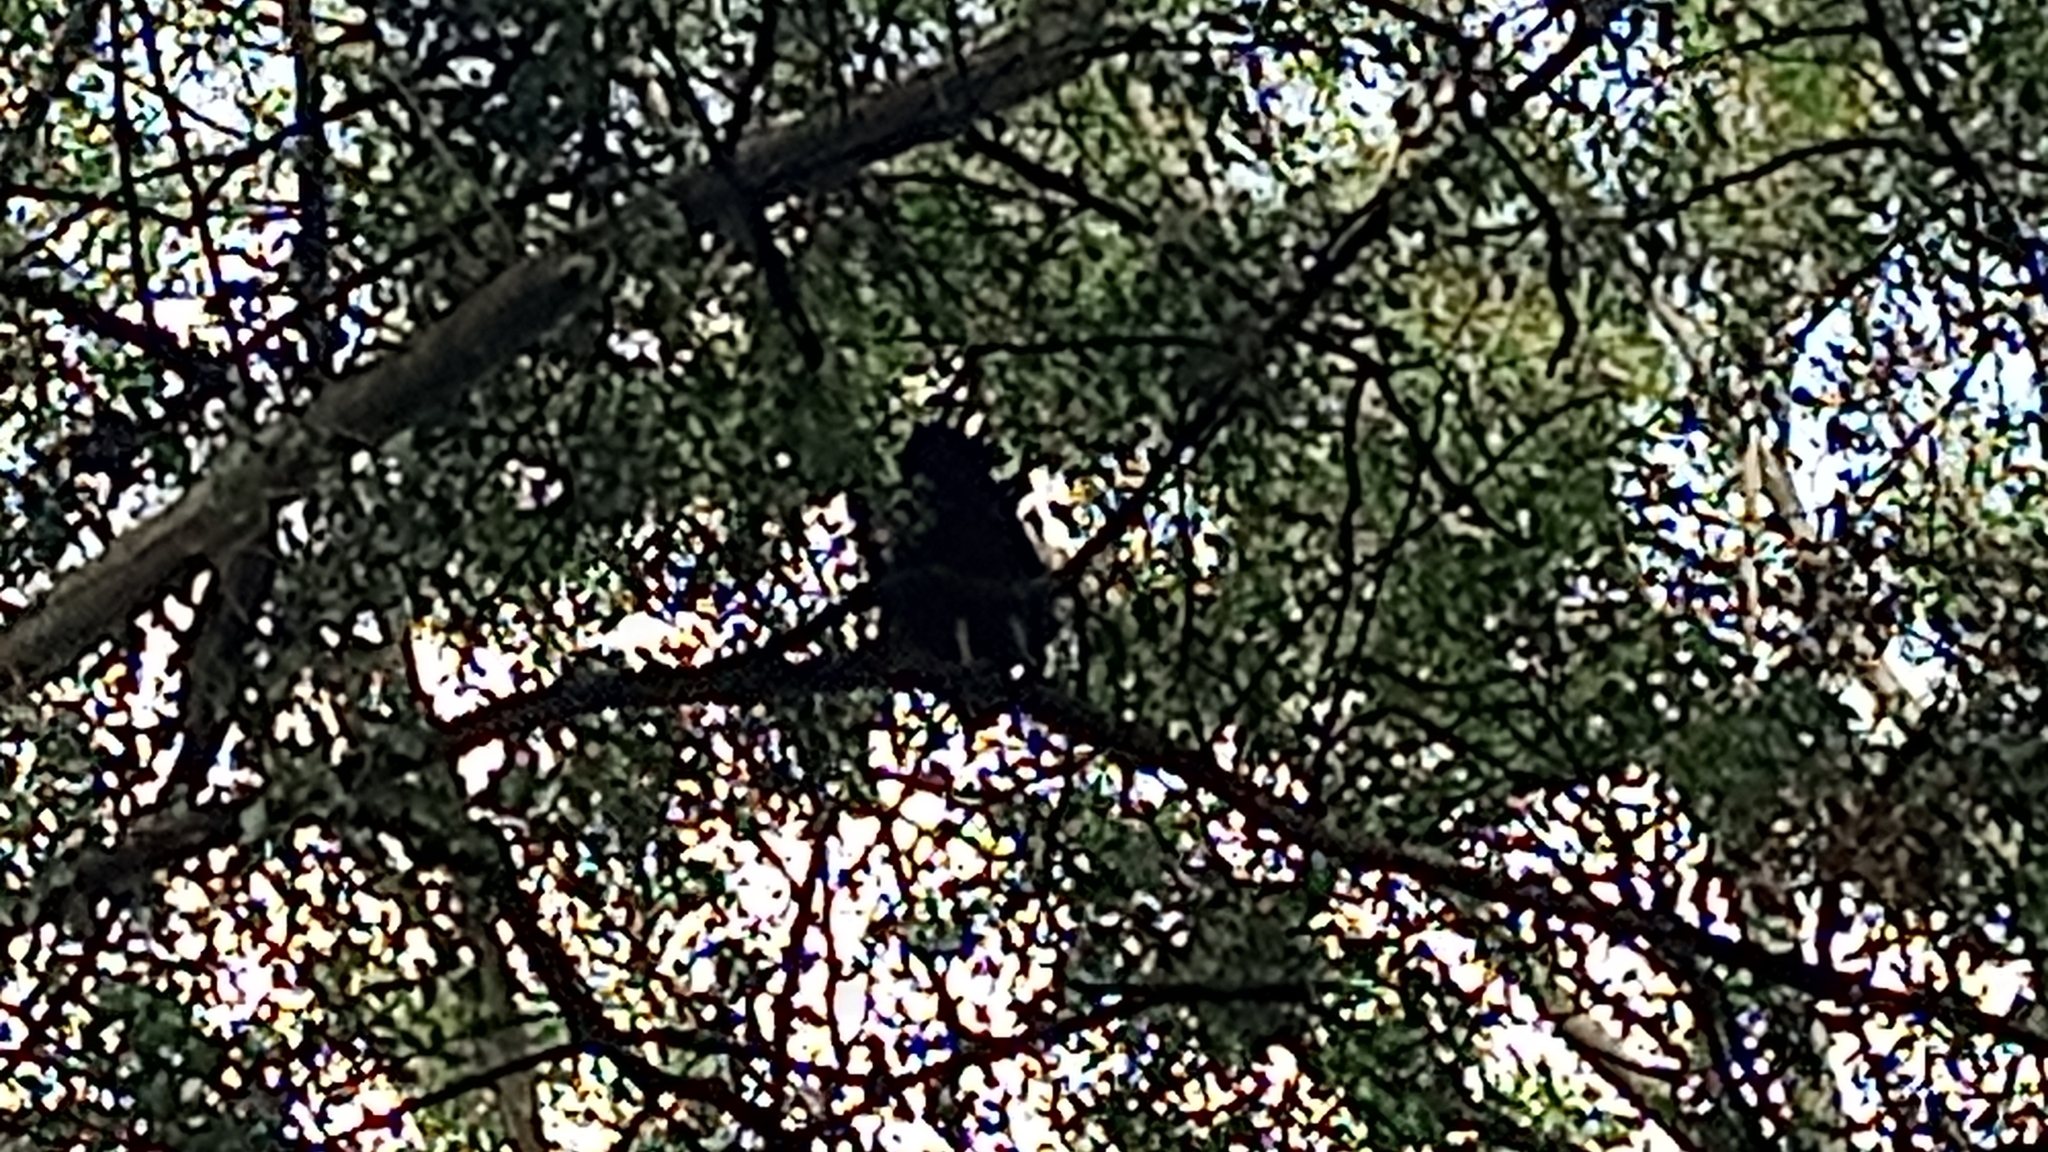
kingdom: Animalia
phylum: Chordata
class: Aves
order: Accipitriformes
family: Cathartidae
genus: Coragyps
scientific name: Coragyps atratus
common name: Black vulture
